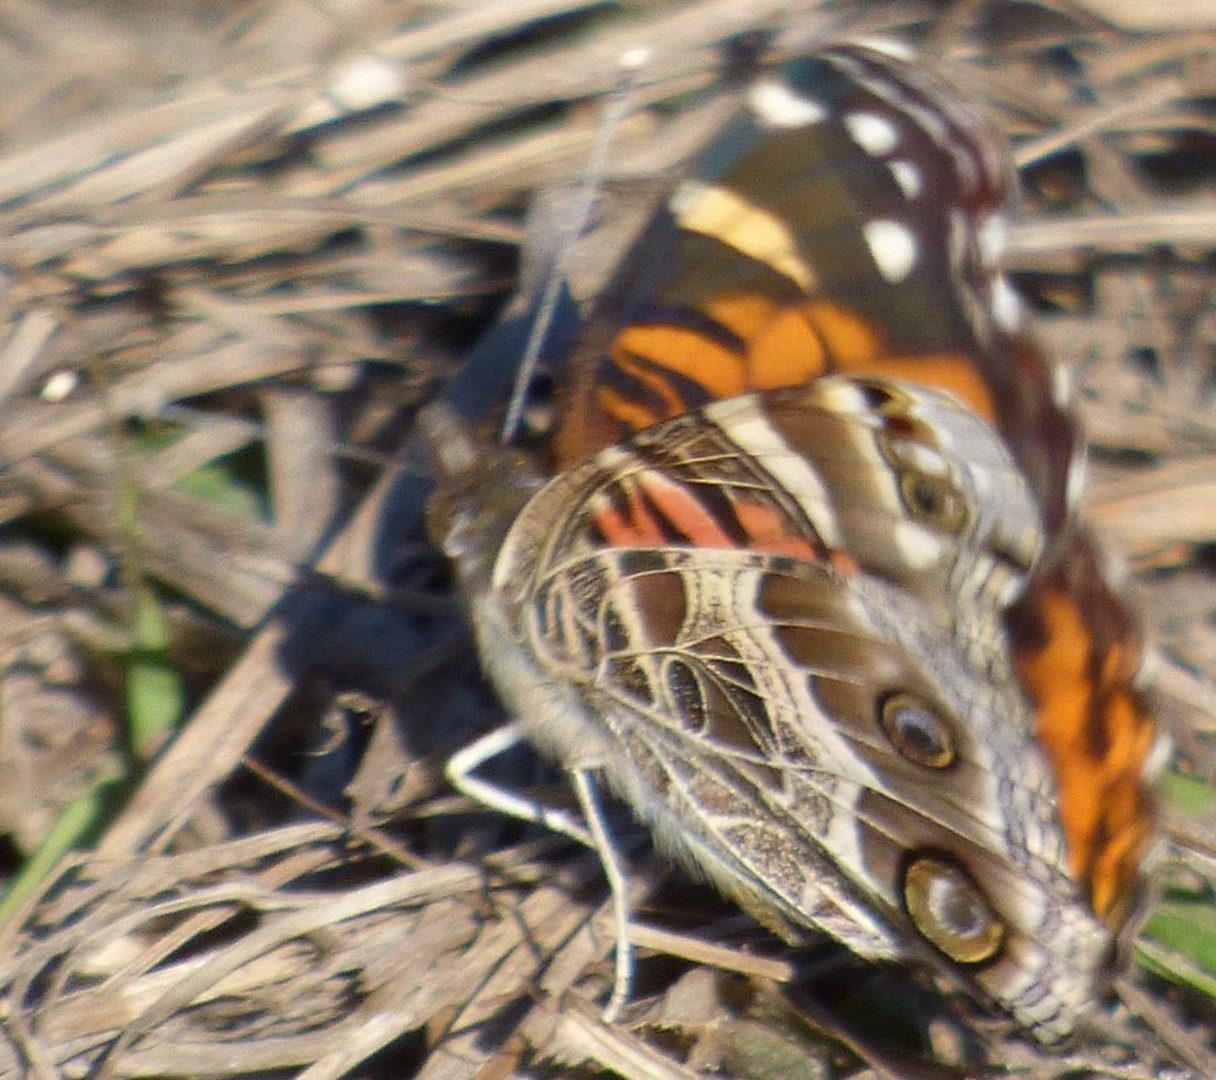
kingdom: Animalia
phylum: Arthropoda
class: Insecta
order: Lepidoptera
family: Nymphalidae
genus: Vanessa
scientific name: Vanessa virginiensis
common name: American lady
